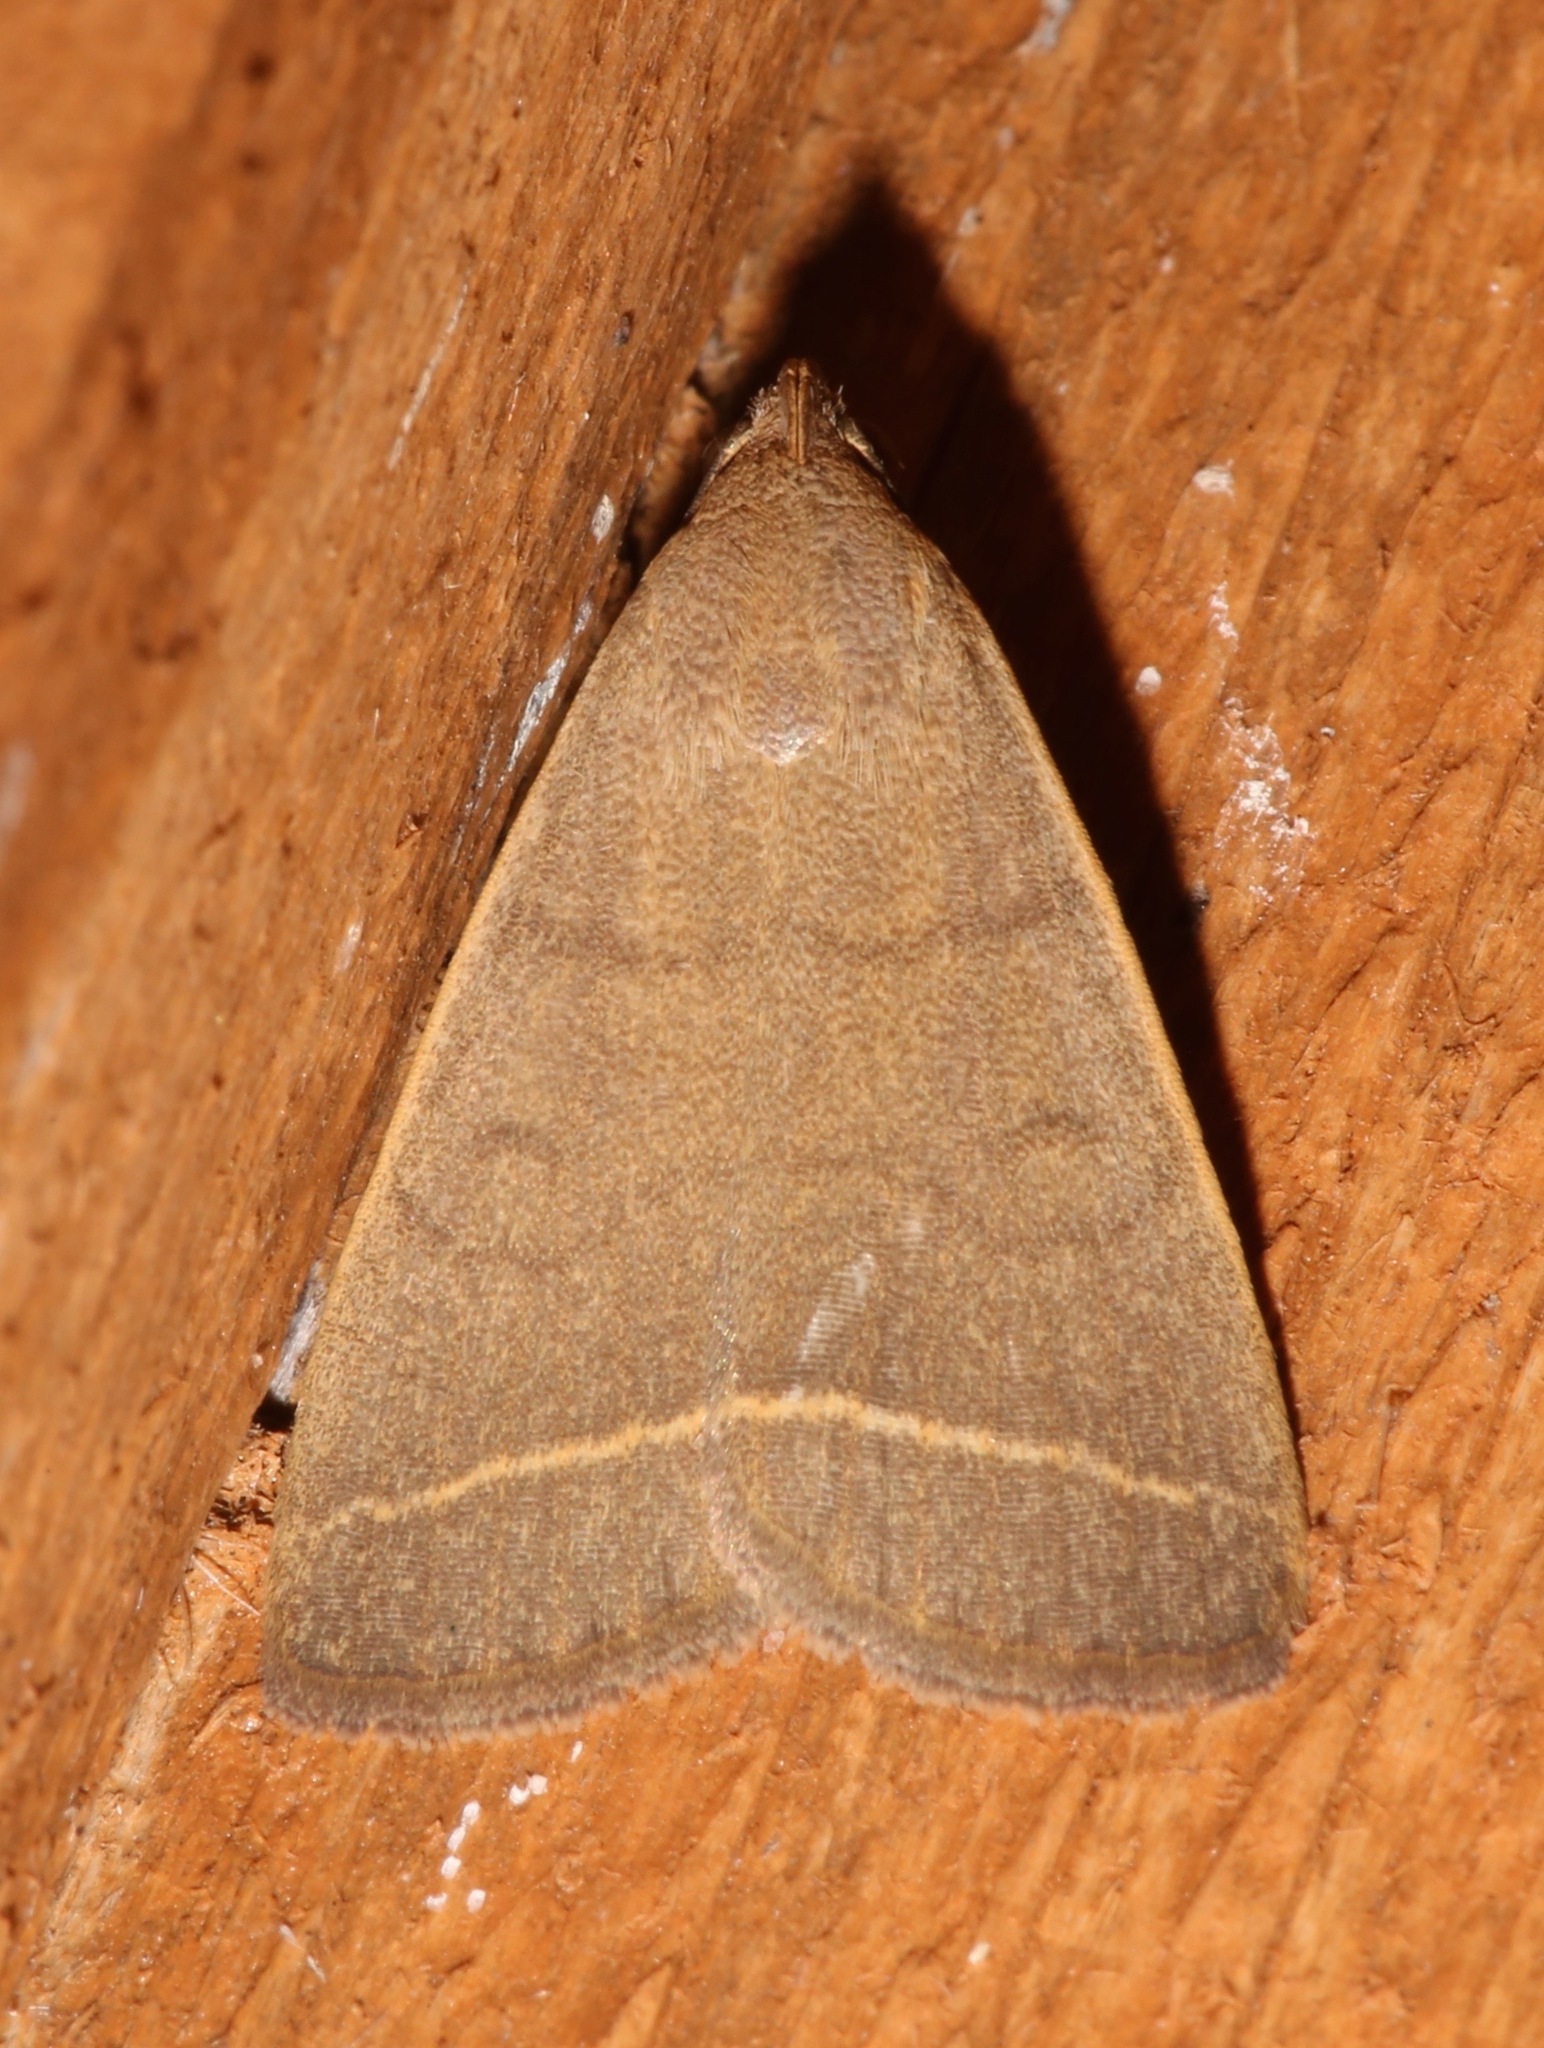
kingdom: Animalia
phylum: Arthropoda
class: Insecta
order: Lepidoptera
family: Erebidae
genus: Simplicia
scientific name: Simplicia cornicalis
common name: Tiki hut litter moth
